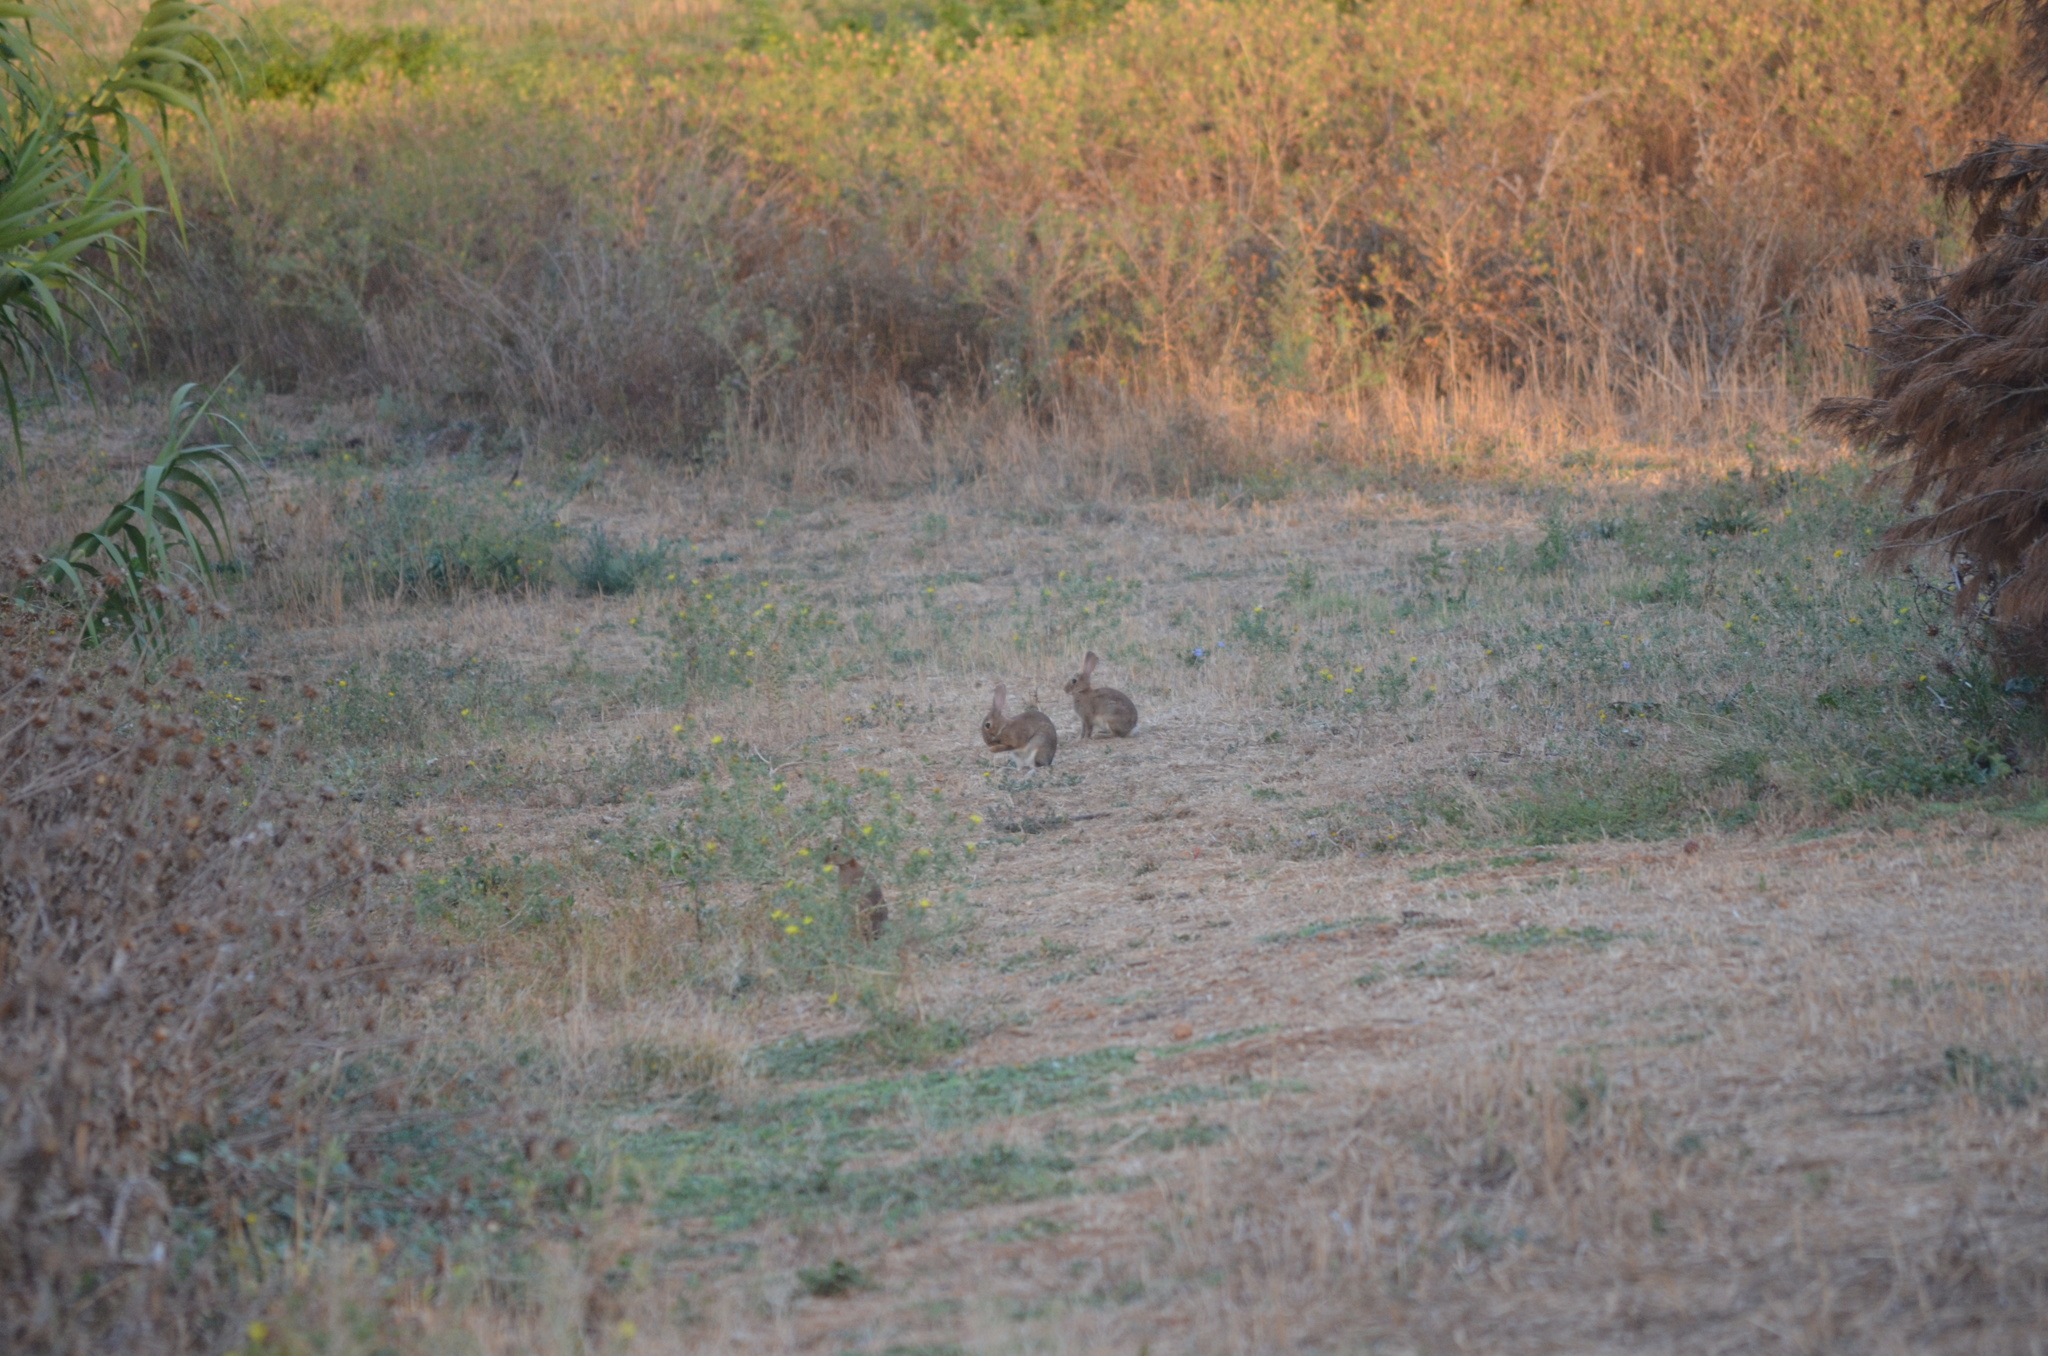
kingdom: Animalia
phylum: Chordata
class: Mammalia
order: Lagomorpha
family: Leporidae
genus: Oryctolagus
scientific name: Oryctolagus cuniculus
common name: European rabbit
